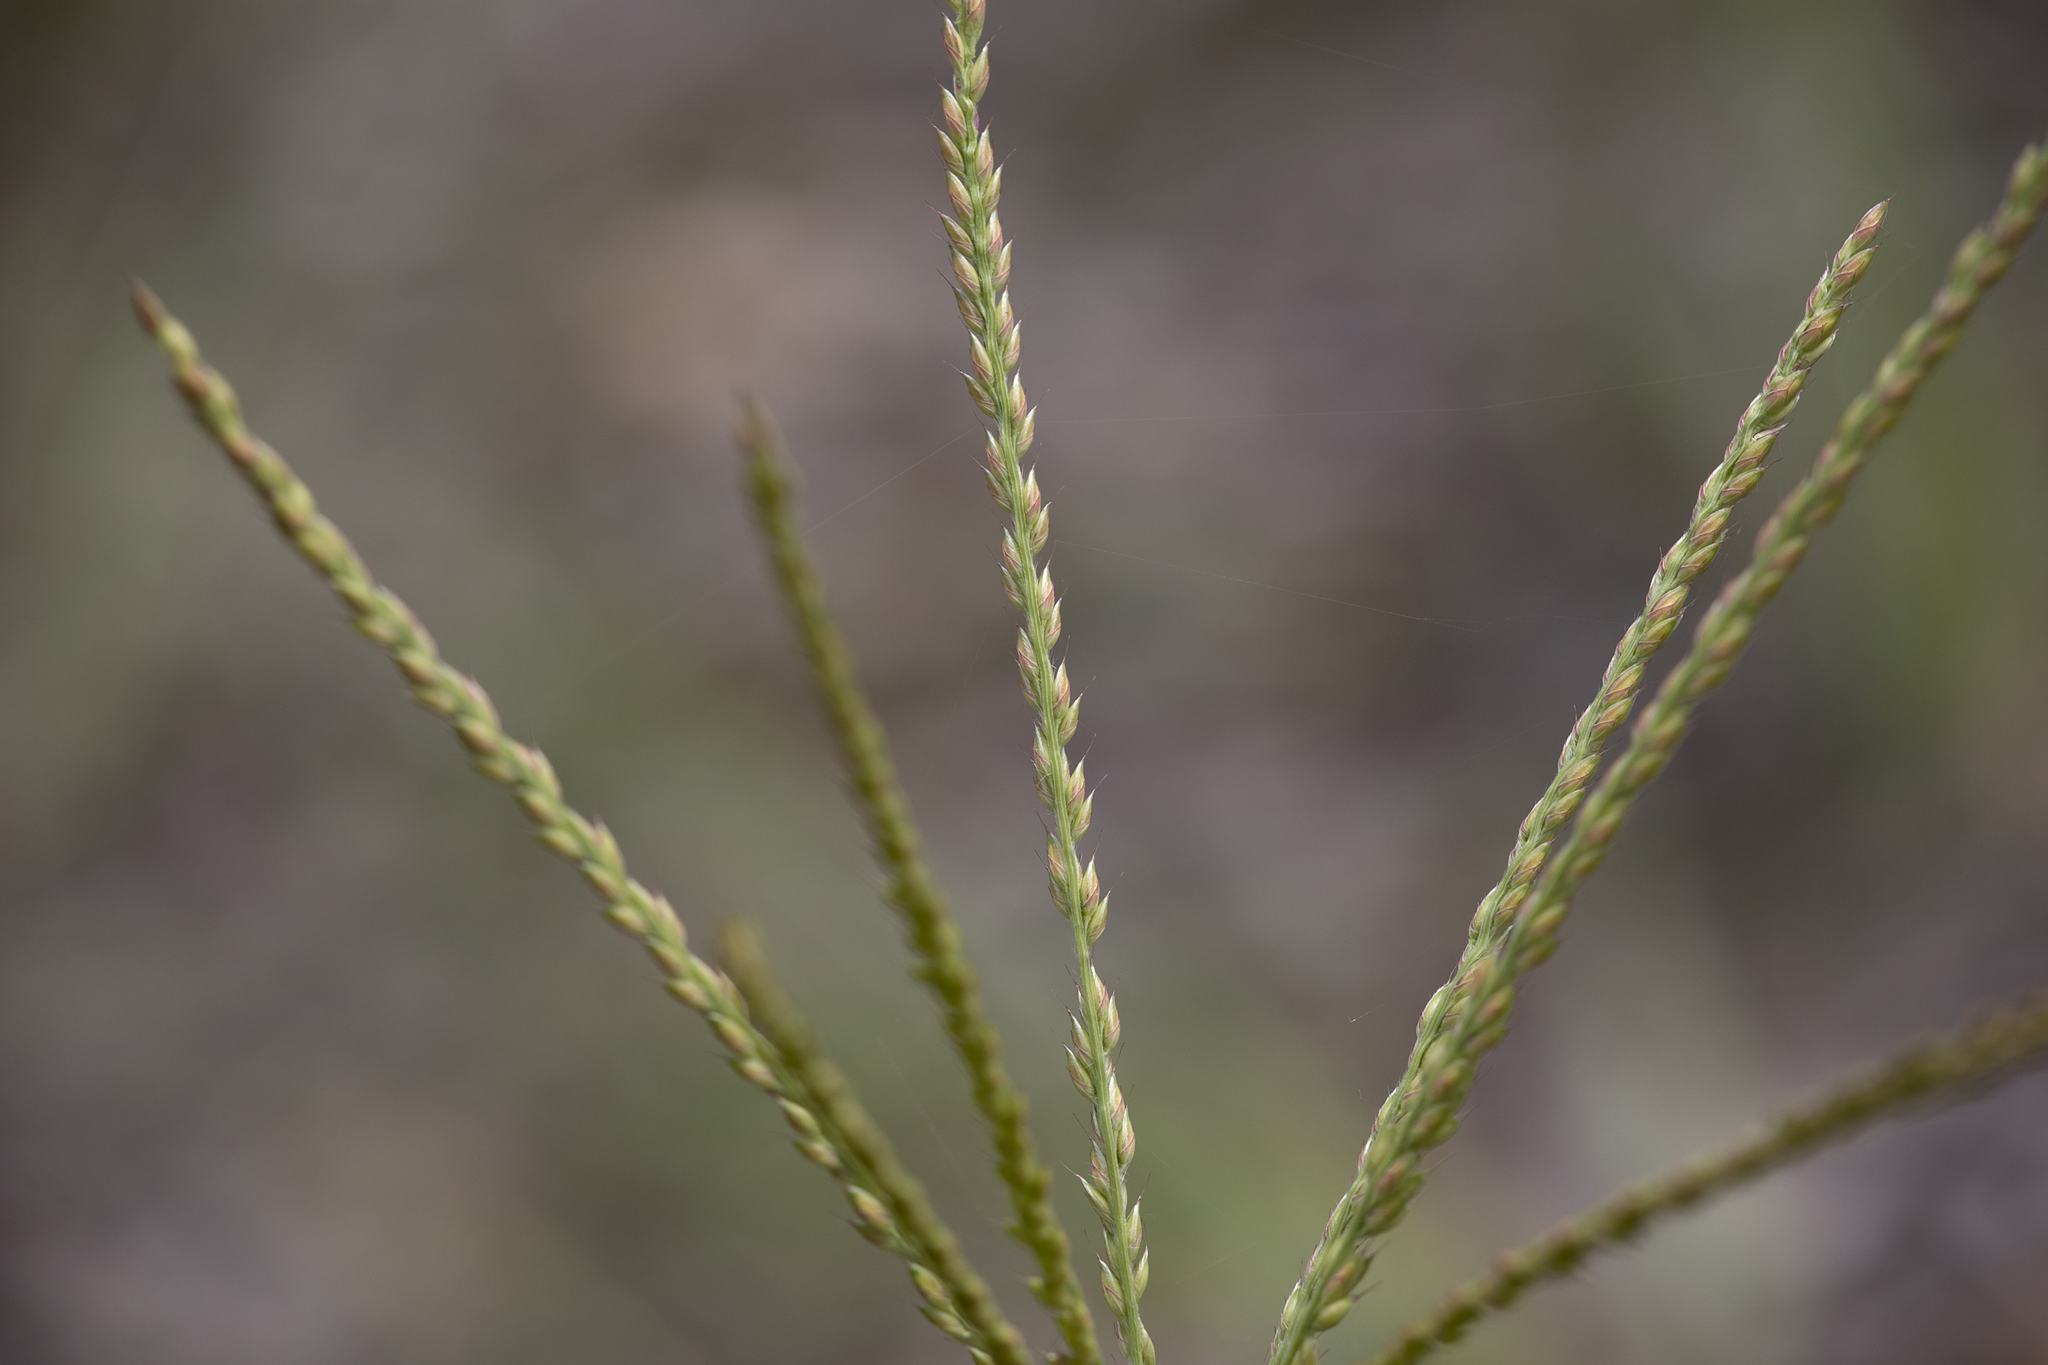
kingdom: Plantae
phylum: Tracheophyta
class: Liliopsida
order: Poales
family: Poaceae
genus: Alloteropsis
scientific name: Alloteropsis semialata
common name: Cockatoo grass
